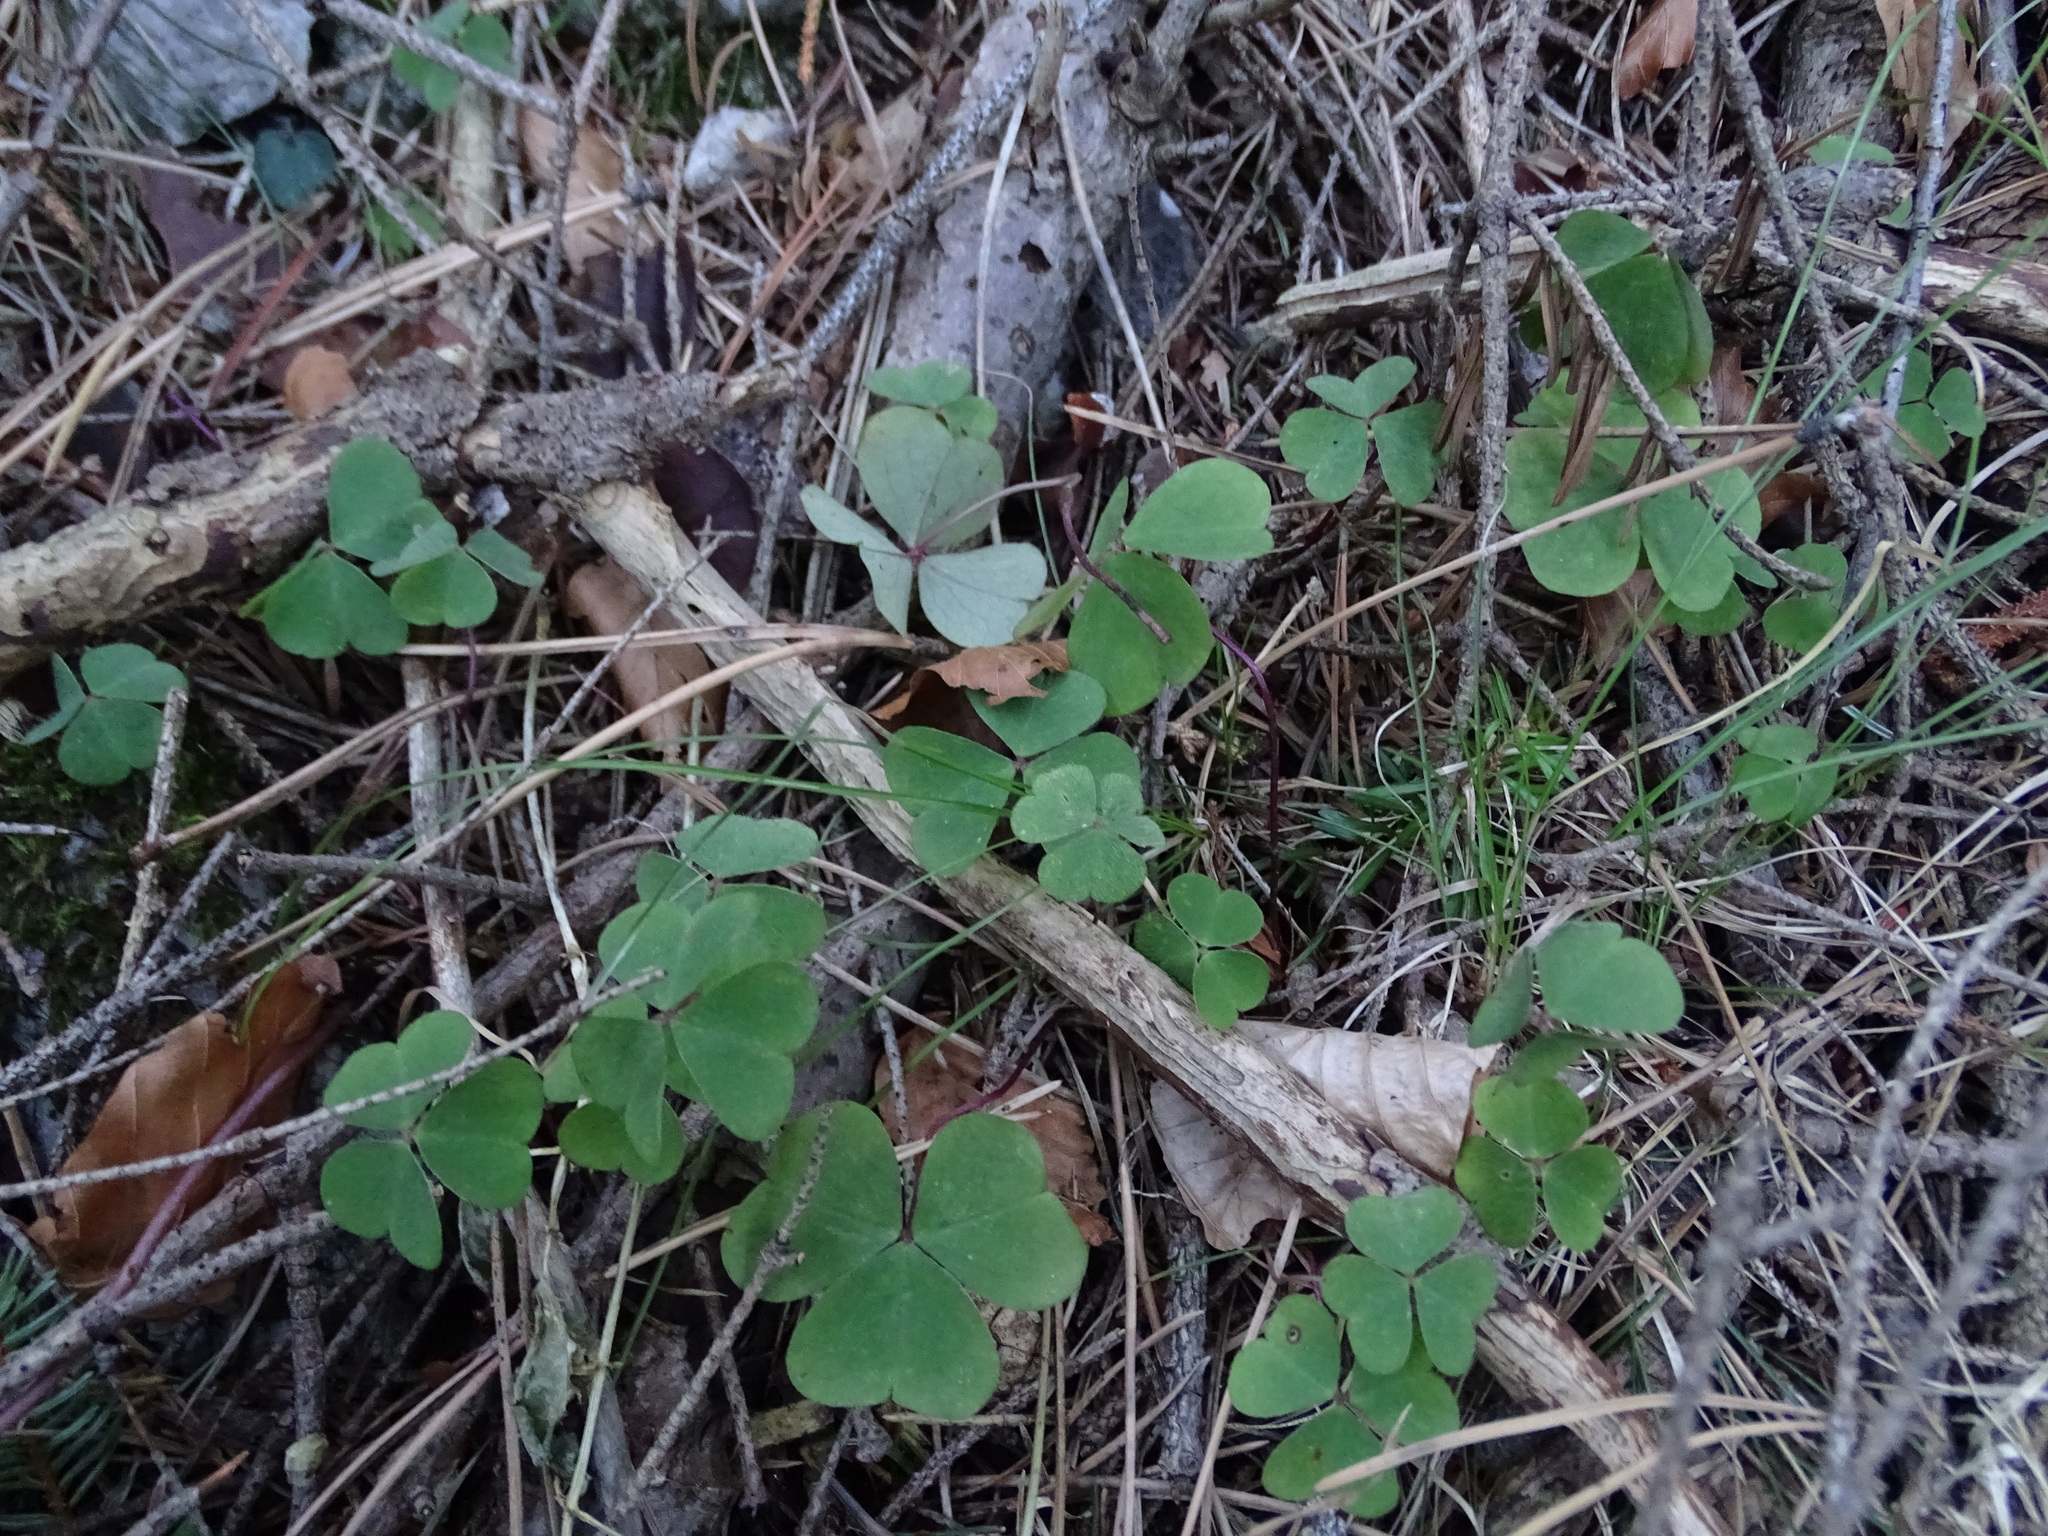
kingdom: Plantae
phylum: Tracheophyta
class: Magnoliopsida
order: Oxalidales
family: Oxalidaceae
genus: Oxalis
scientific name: Oxalis acetosella
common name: Wood-sorrel
